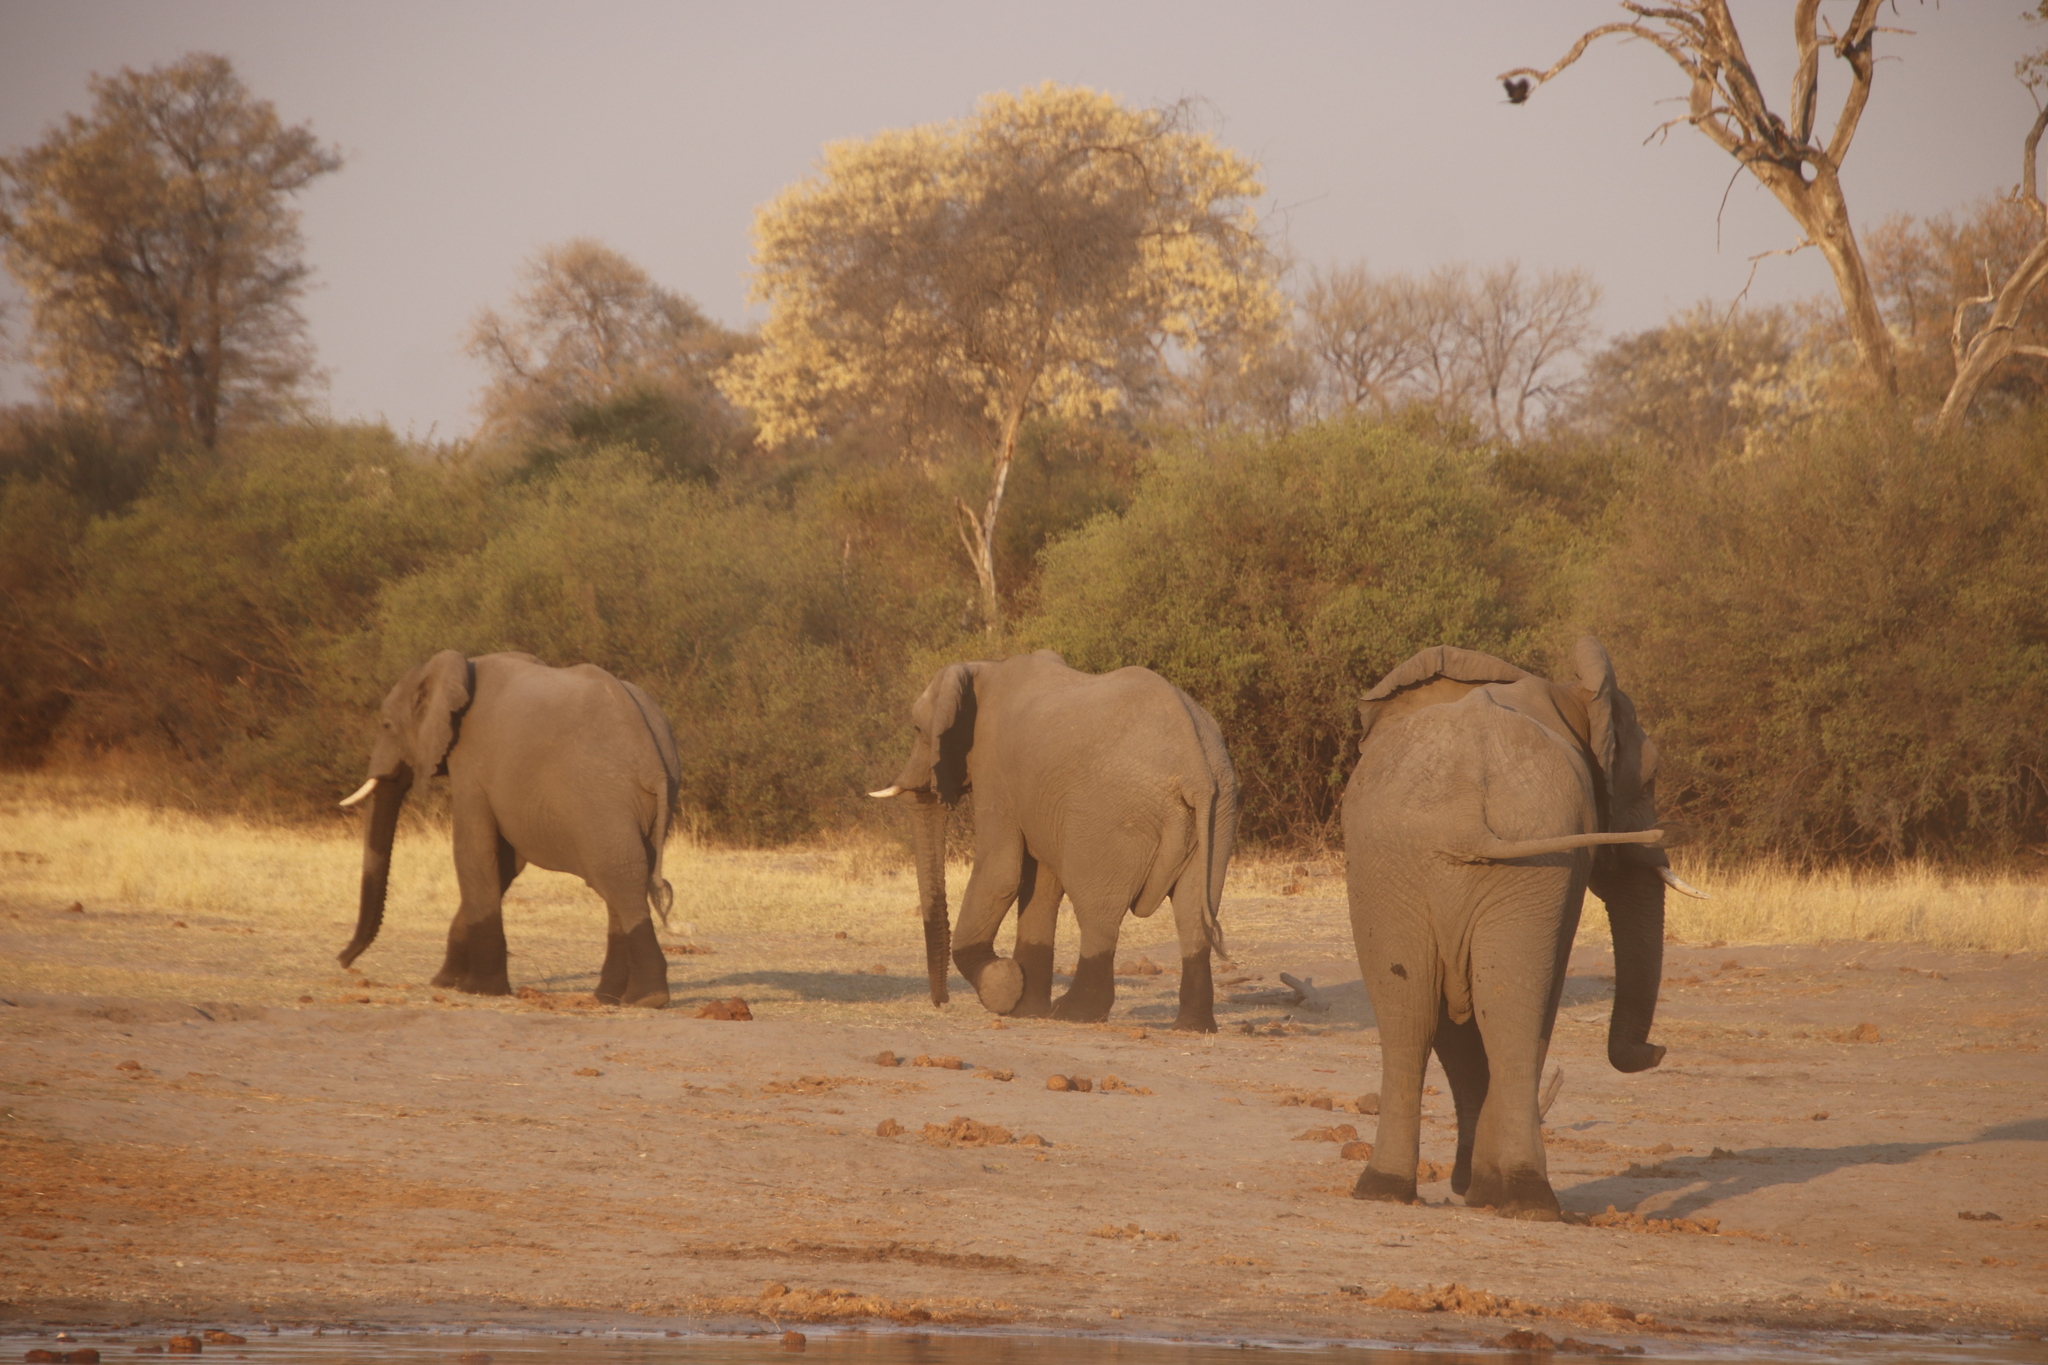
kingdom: Plantae
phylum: Tracheophyta
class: Magnoliopsida
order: Fabales
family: Fabaceae
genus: Senegalia
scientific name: Senegalia nigrescens
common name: Knobthorn
